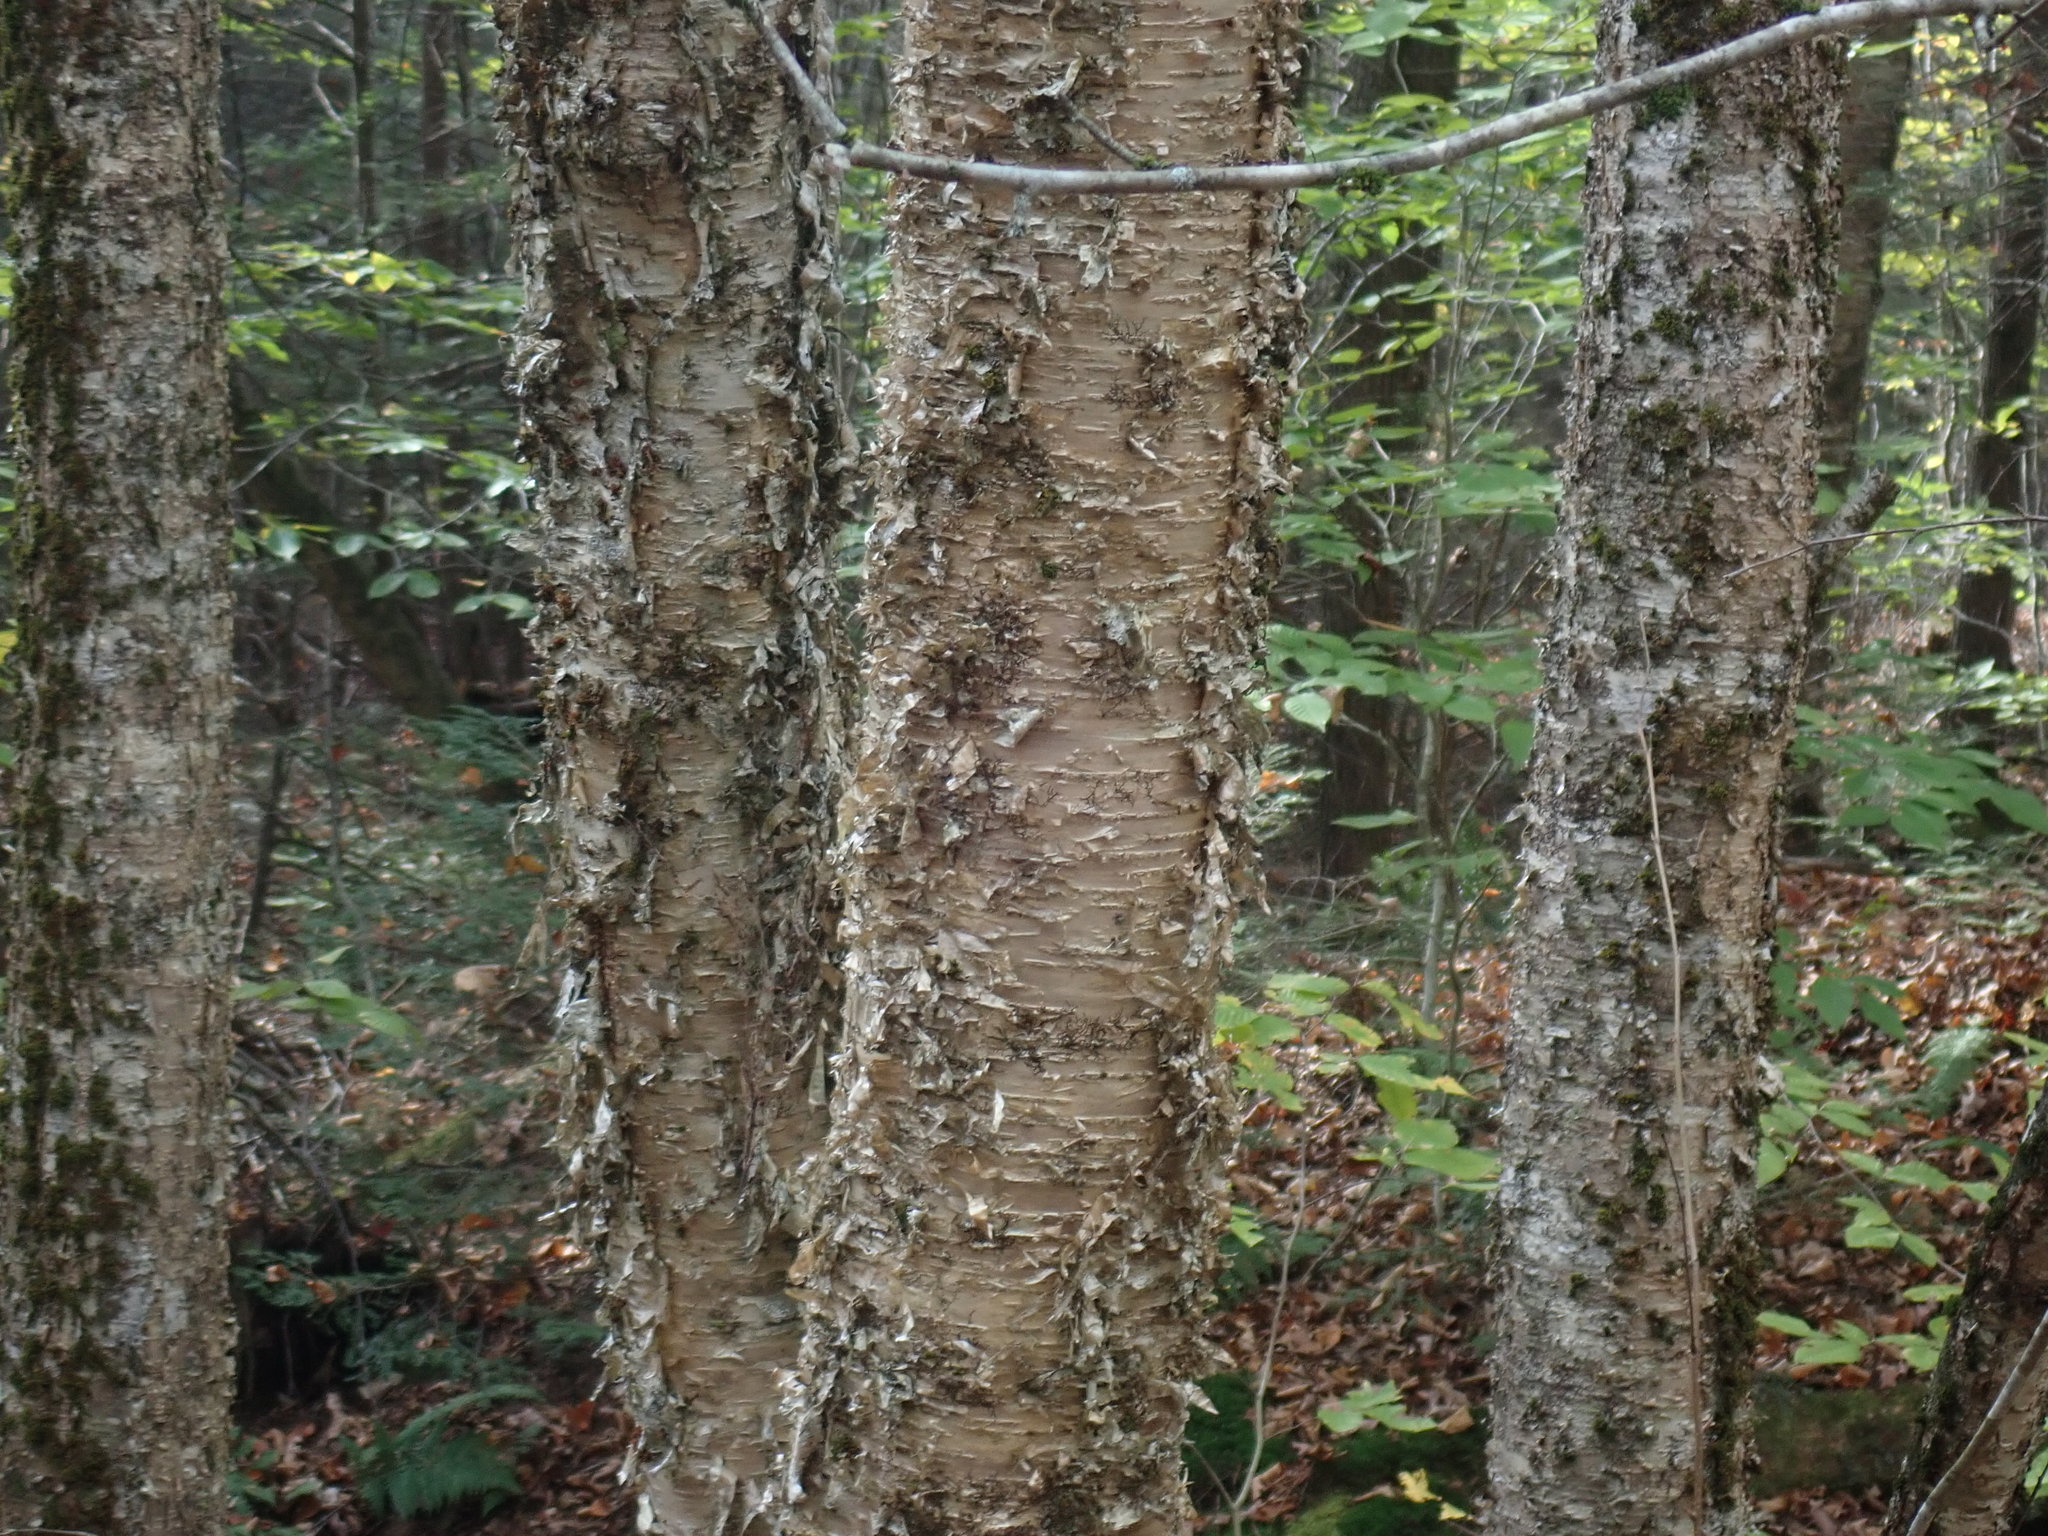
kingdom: Plantae
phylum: Tracheophyta
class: Magnoliopsida
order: Fagales
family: Betulaceae
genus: Betula
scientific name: Betula alleghaniensis
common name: Yellow birch
